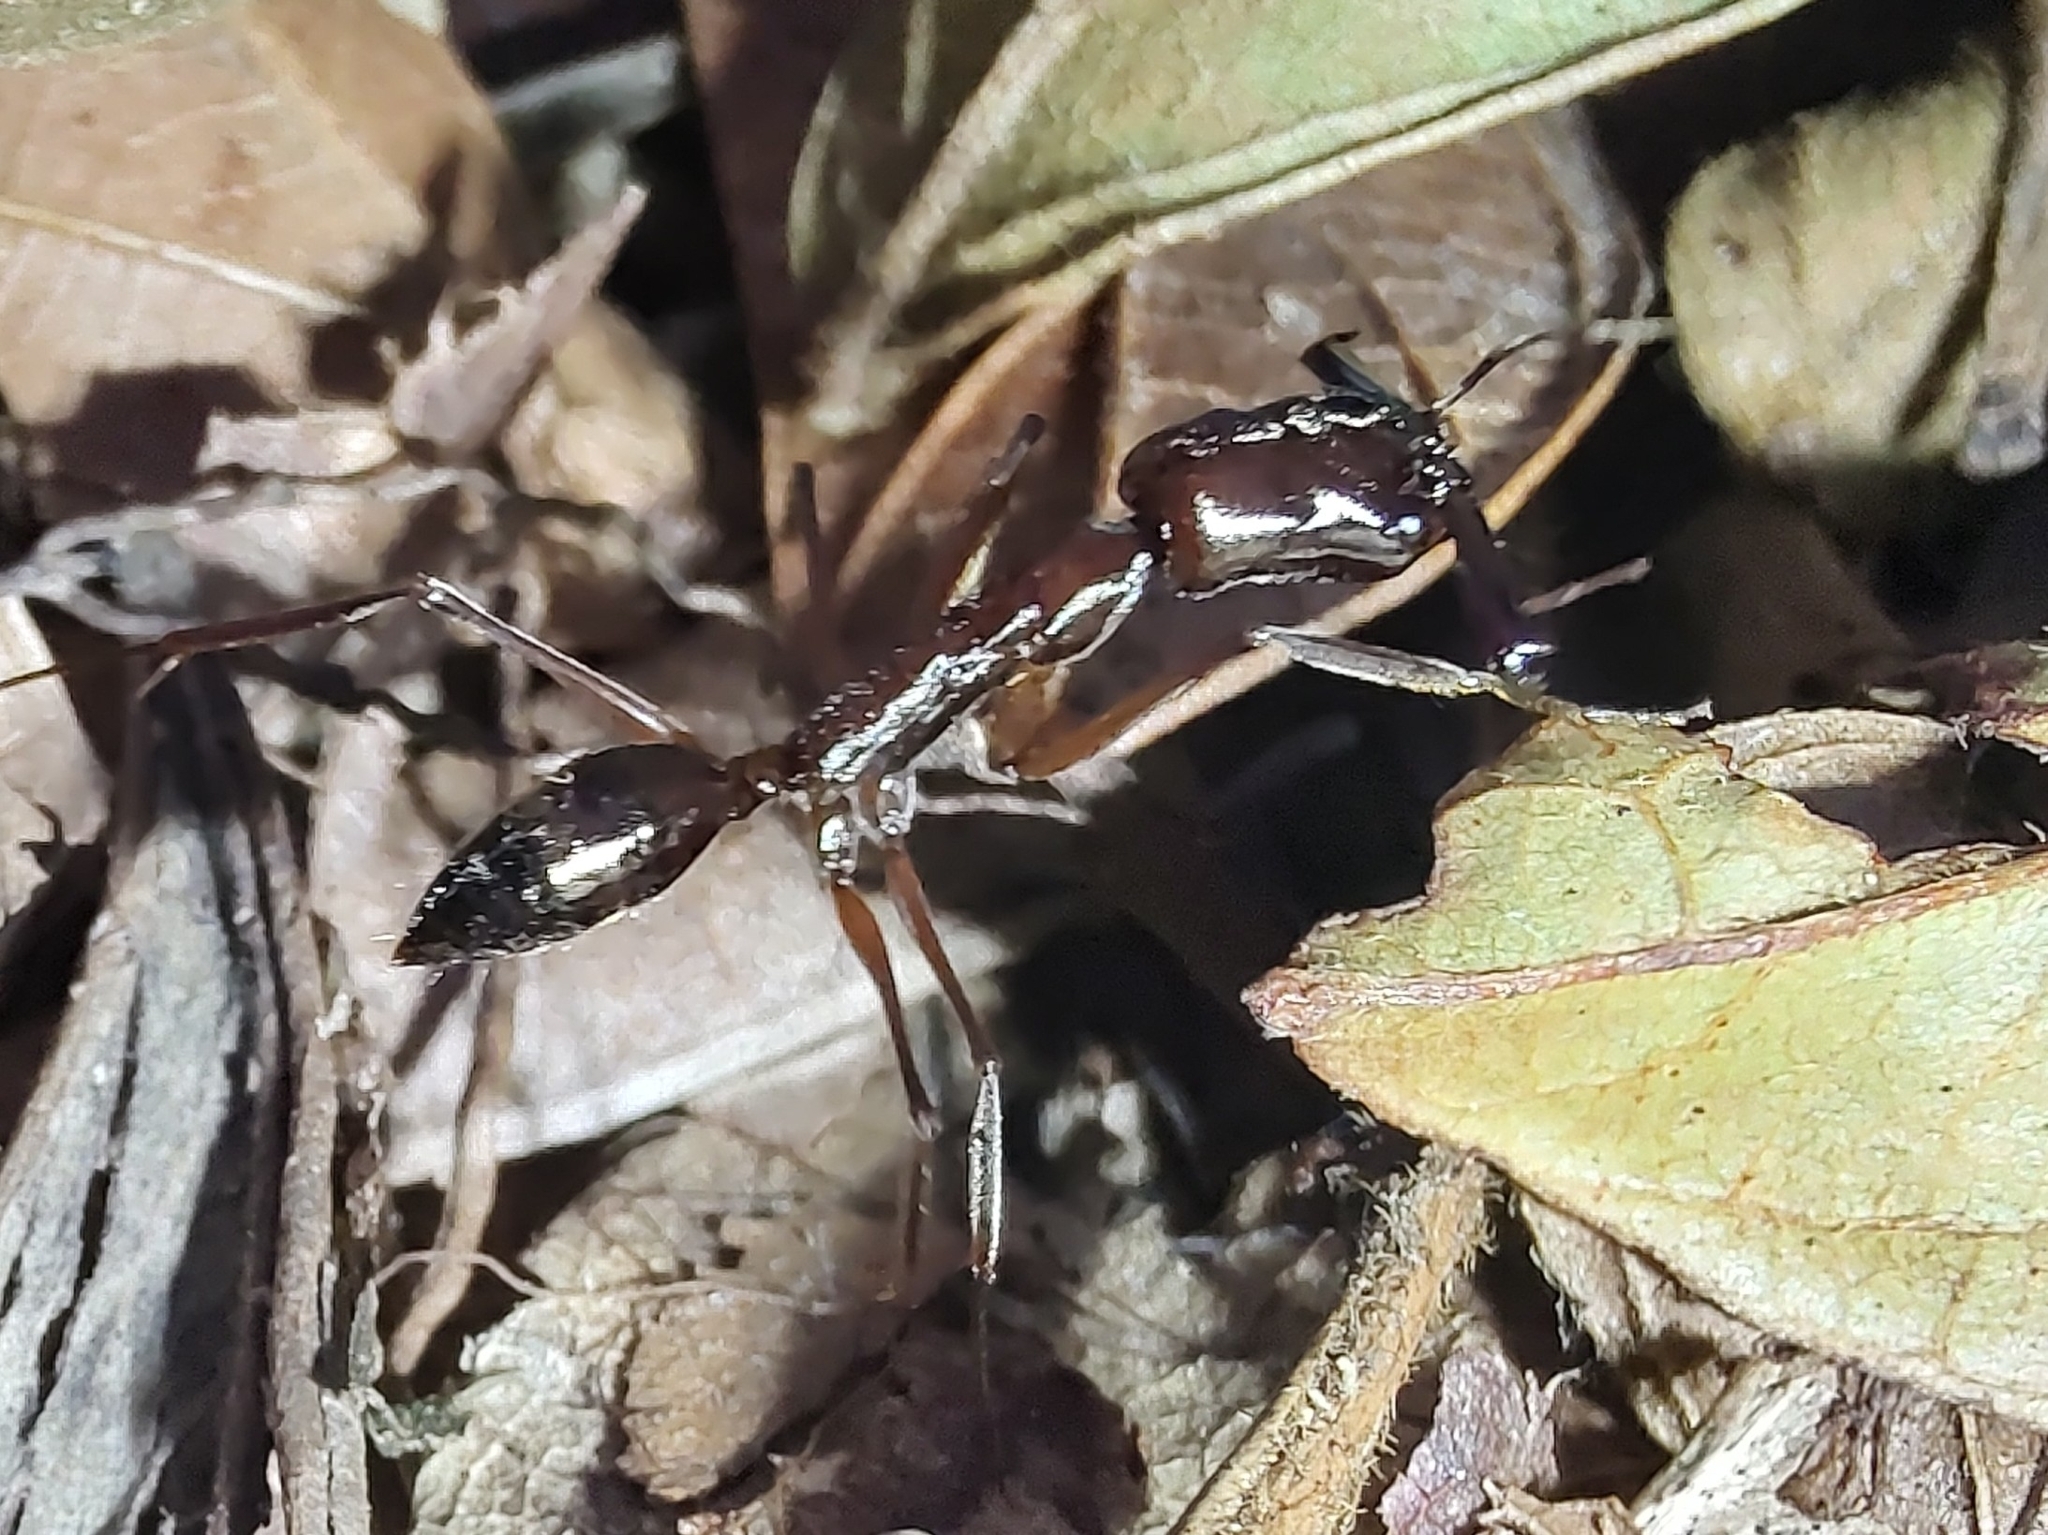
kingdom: Animalia
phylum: Arthropoda
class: Insecta
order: Hymenoptera
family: Formicidae
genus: Odontomachus
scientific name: Odontomachus chelifer
